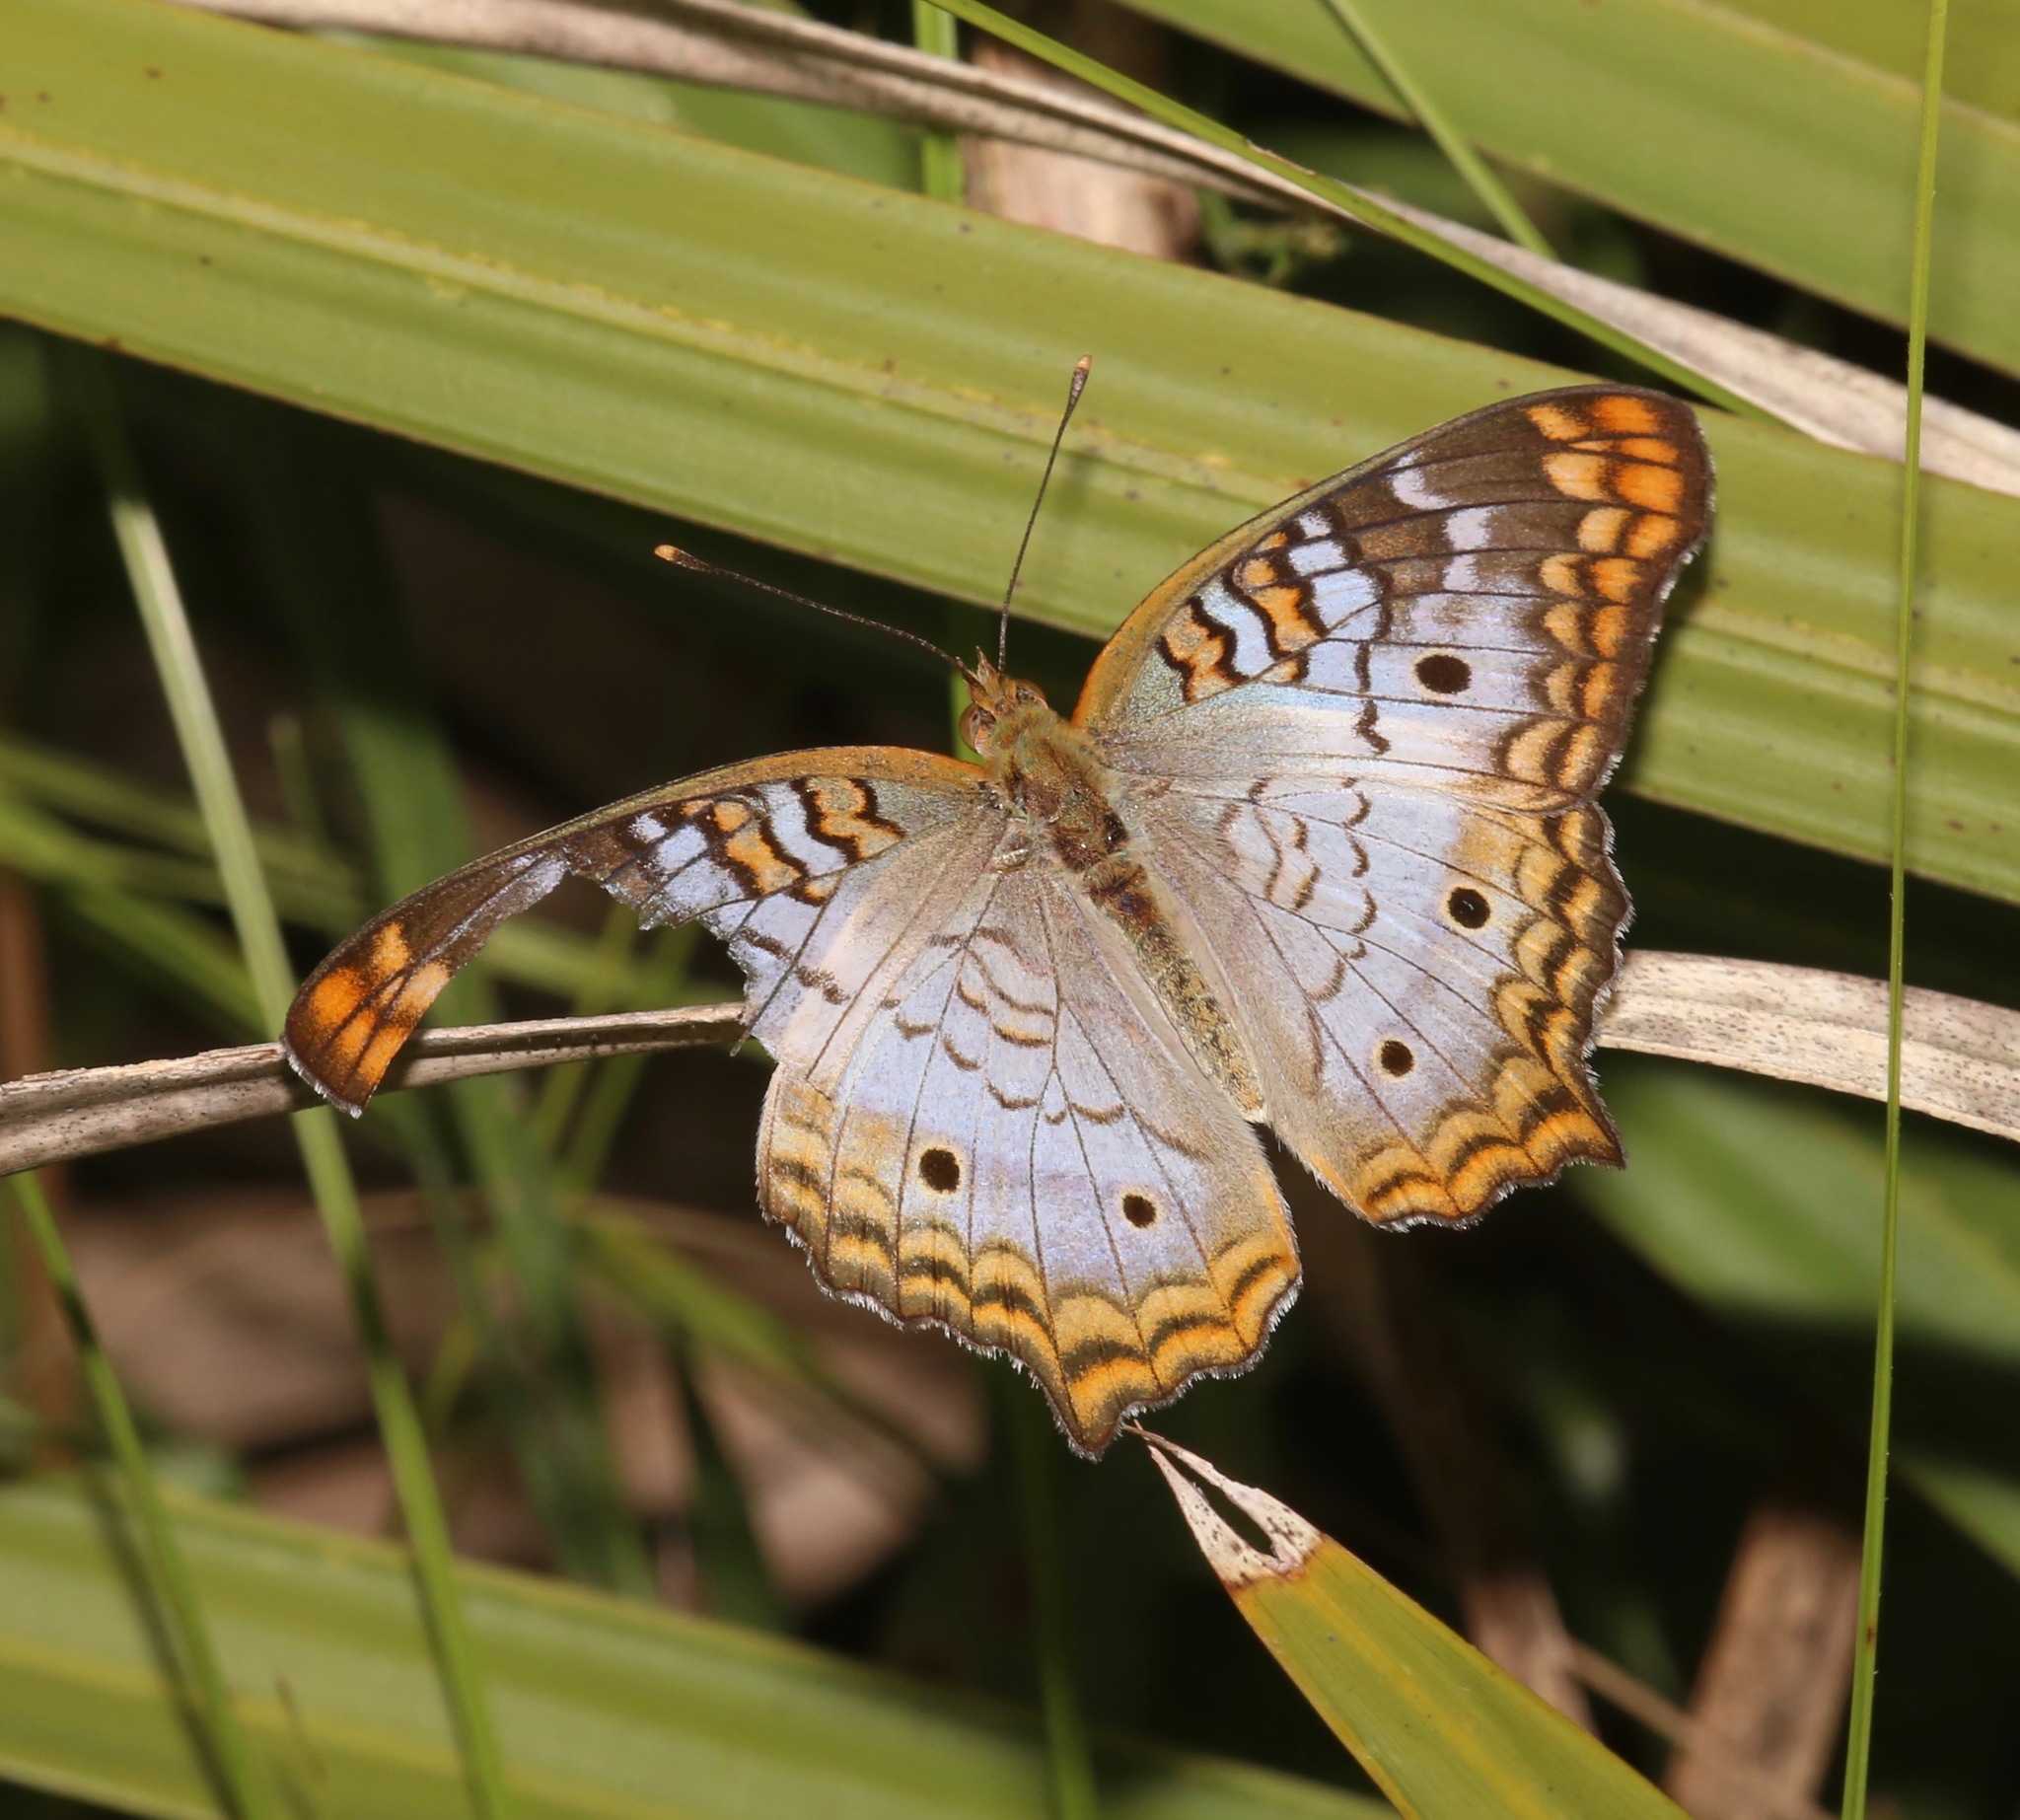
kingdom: Animalia
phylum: Arthropoda
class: Insecta
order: Lepidoptera
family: Nymphalidae
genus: Anartia
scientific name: Anartia jatrophae
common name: White peacock
